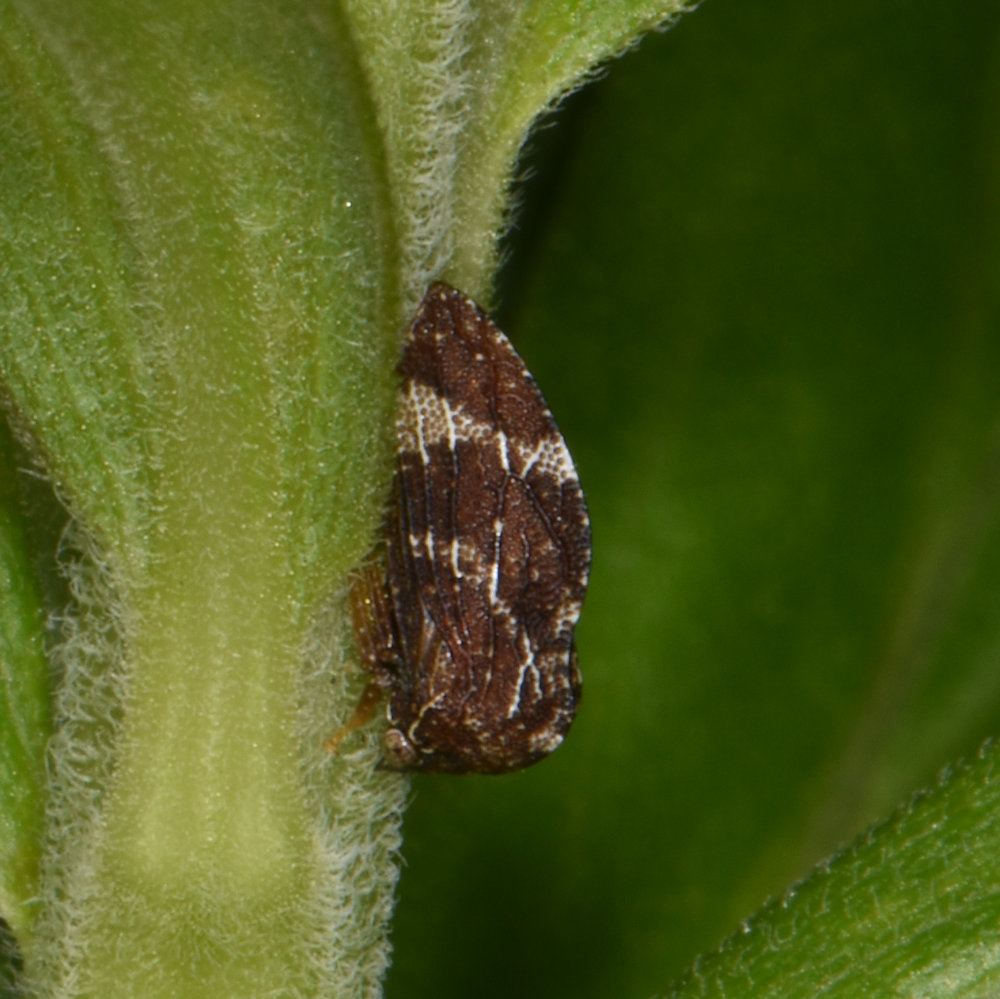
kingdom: Animalia
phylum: Arthropoda
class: Insecta
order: Hemiptera
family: Membracidae
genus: Publilia
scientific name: Publilia concava
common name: Aster treehopper
